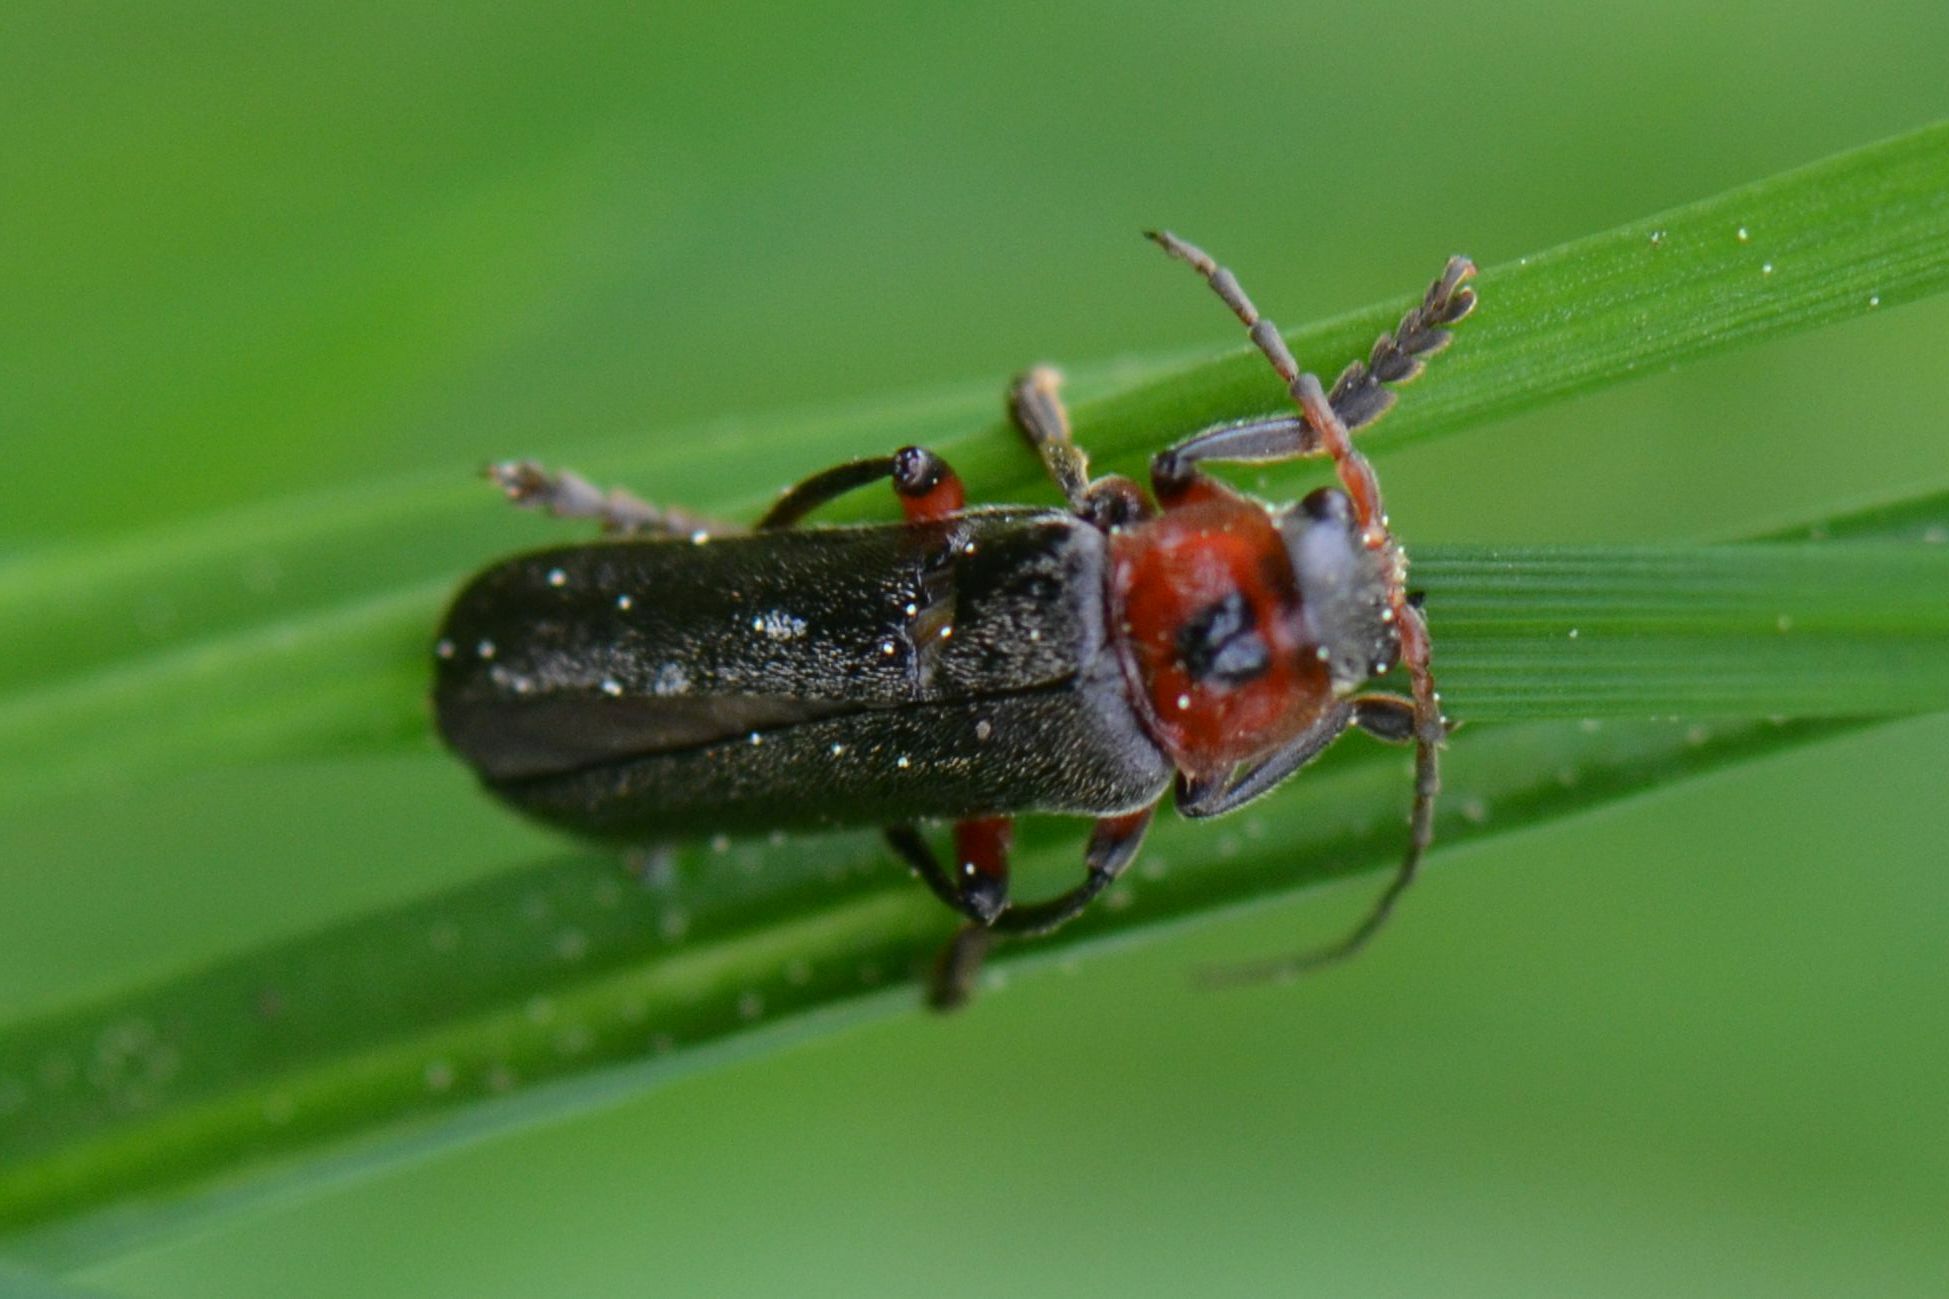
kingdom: Animalia
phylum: Arthropoda
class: Insecta
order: Coleoptera
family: Cantharidae
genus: Cantharis
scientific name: Cantharis rustica
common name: Soldier beetle
